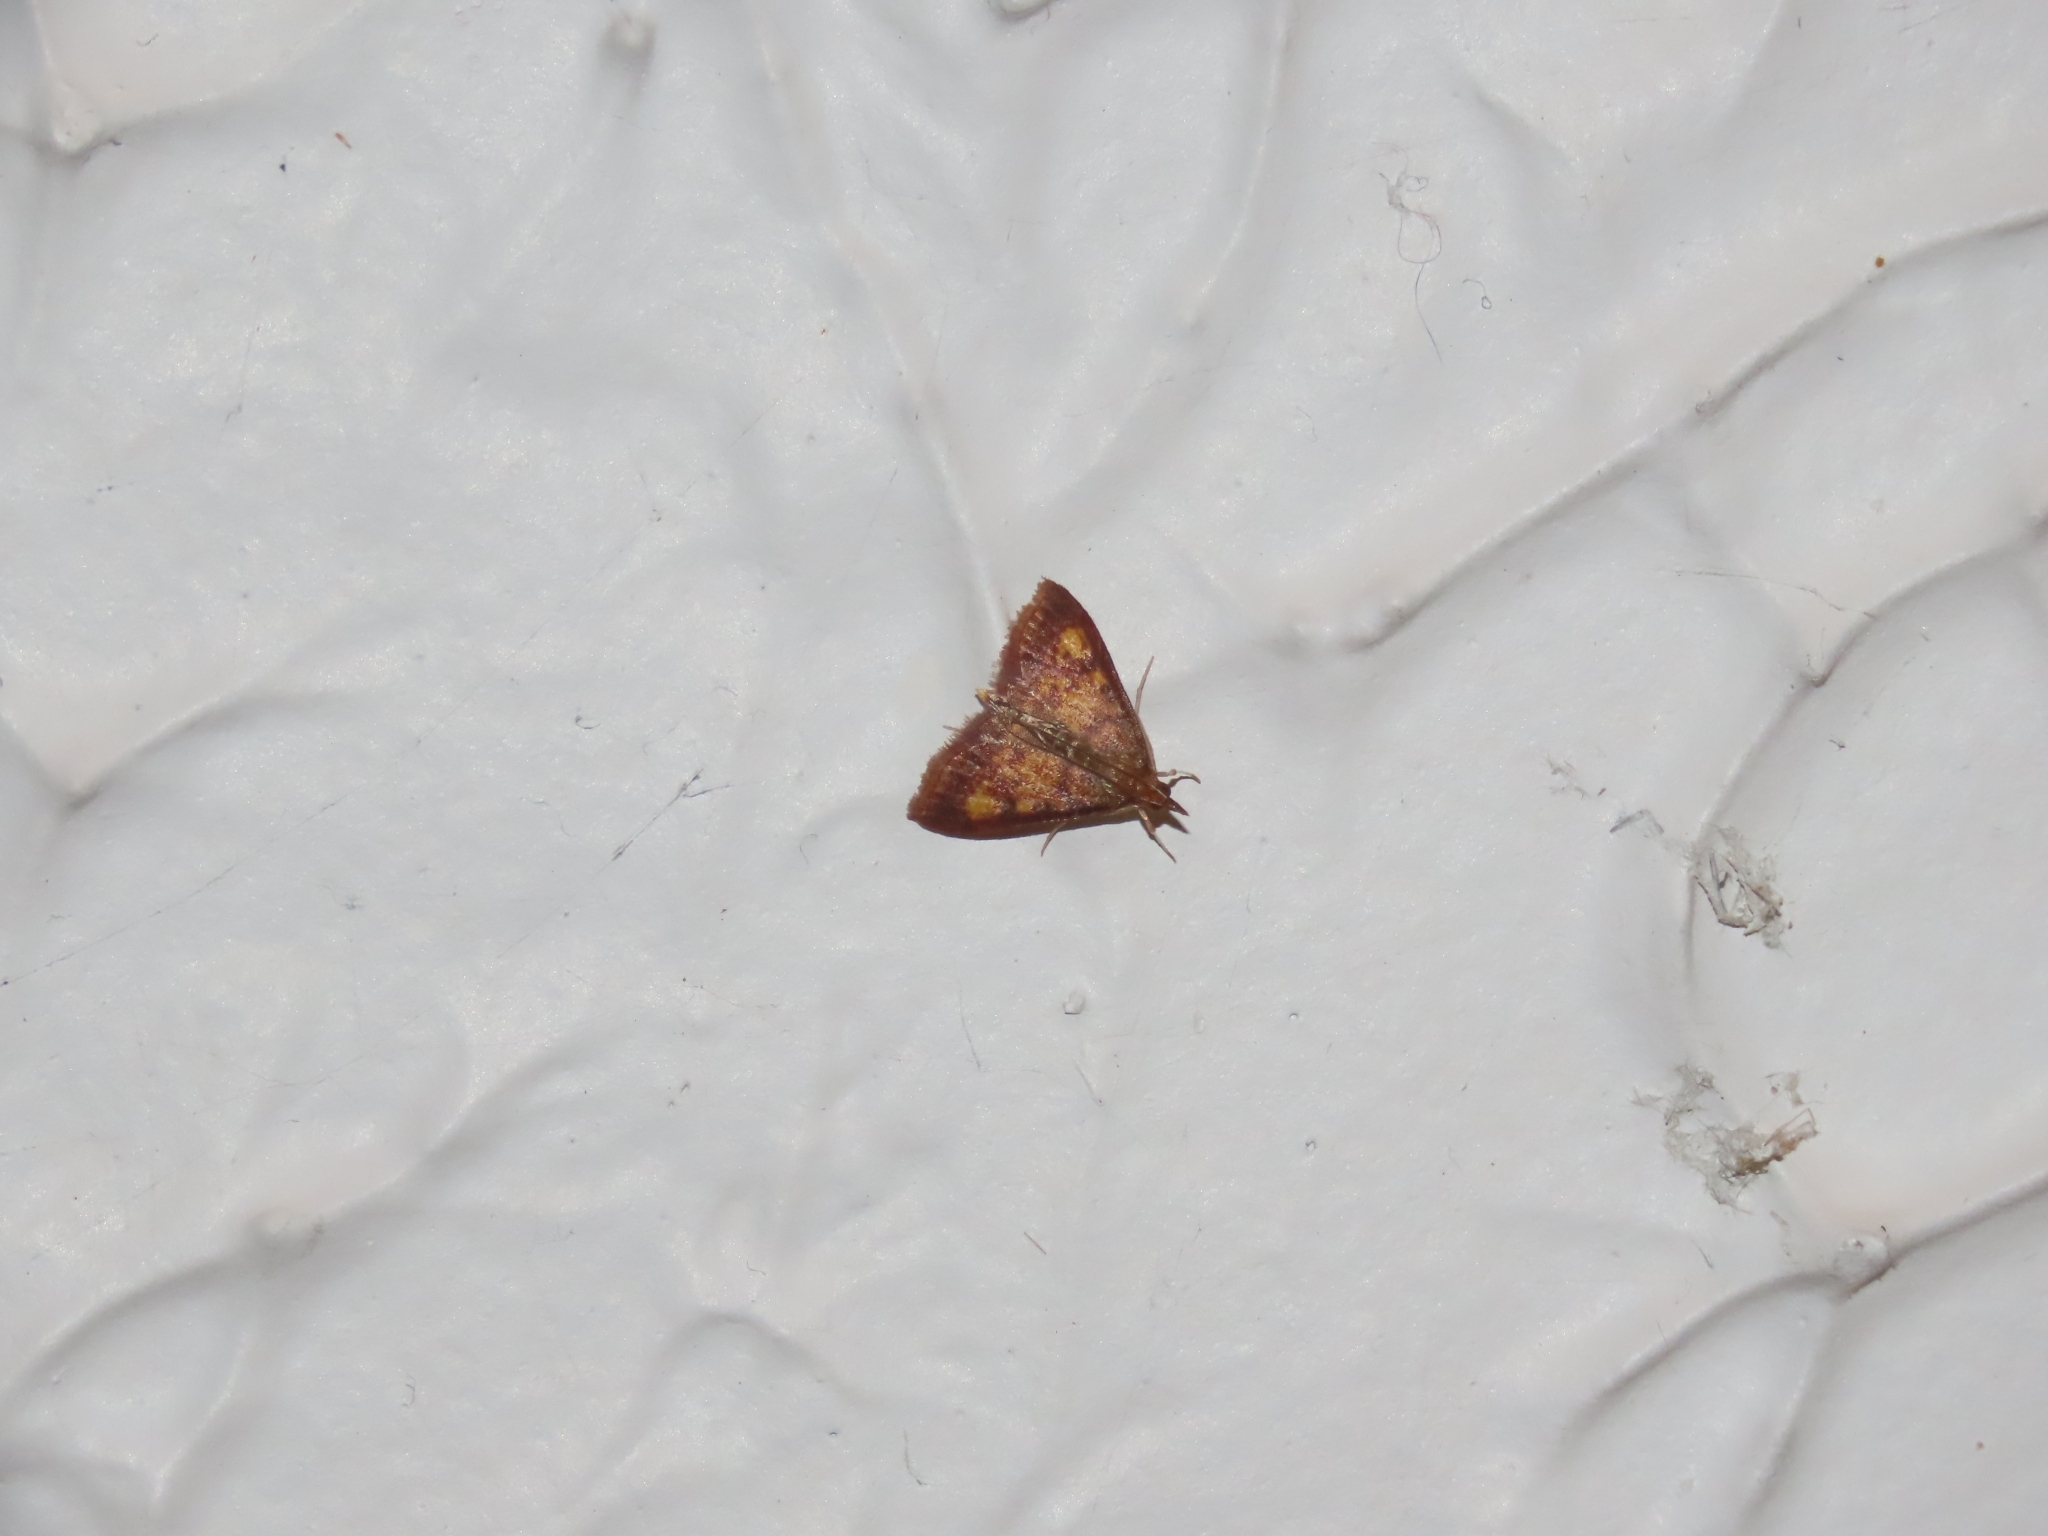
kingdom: Animalia
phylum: Arthropoda
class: Insecta
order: Lepidoptera
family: Crambidae
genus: Pyrausta
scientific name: Pyrausta acrionalis
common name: Mint-loving pyrausta moth
